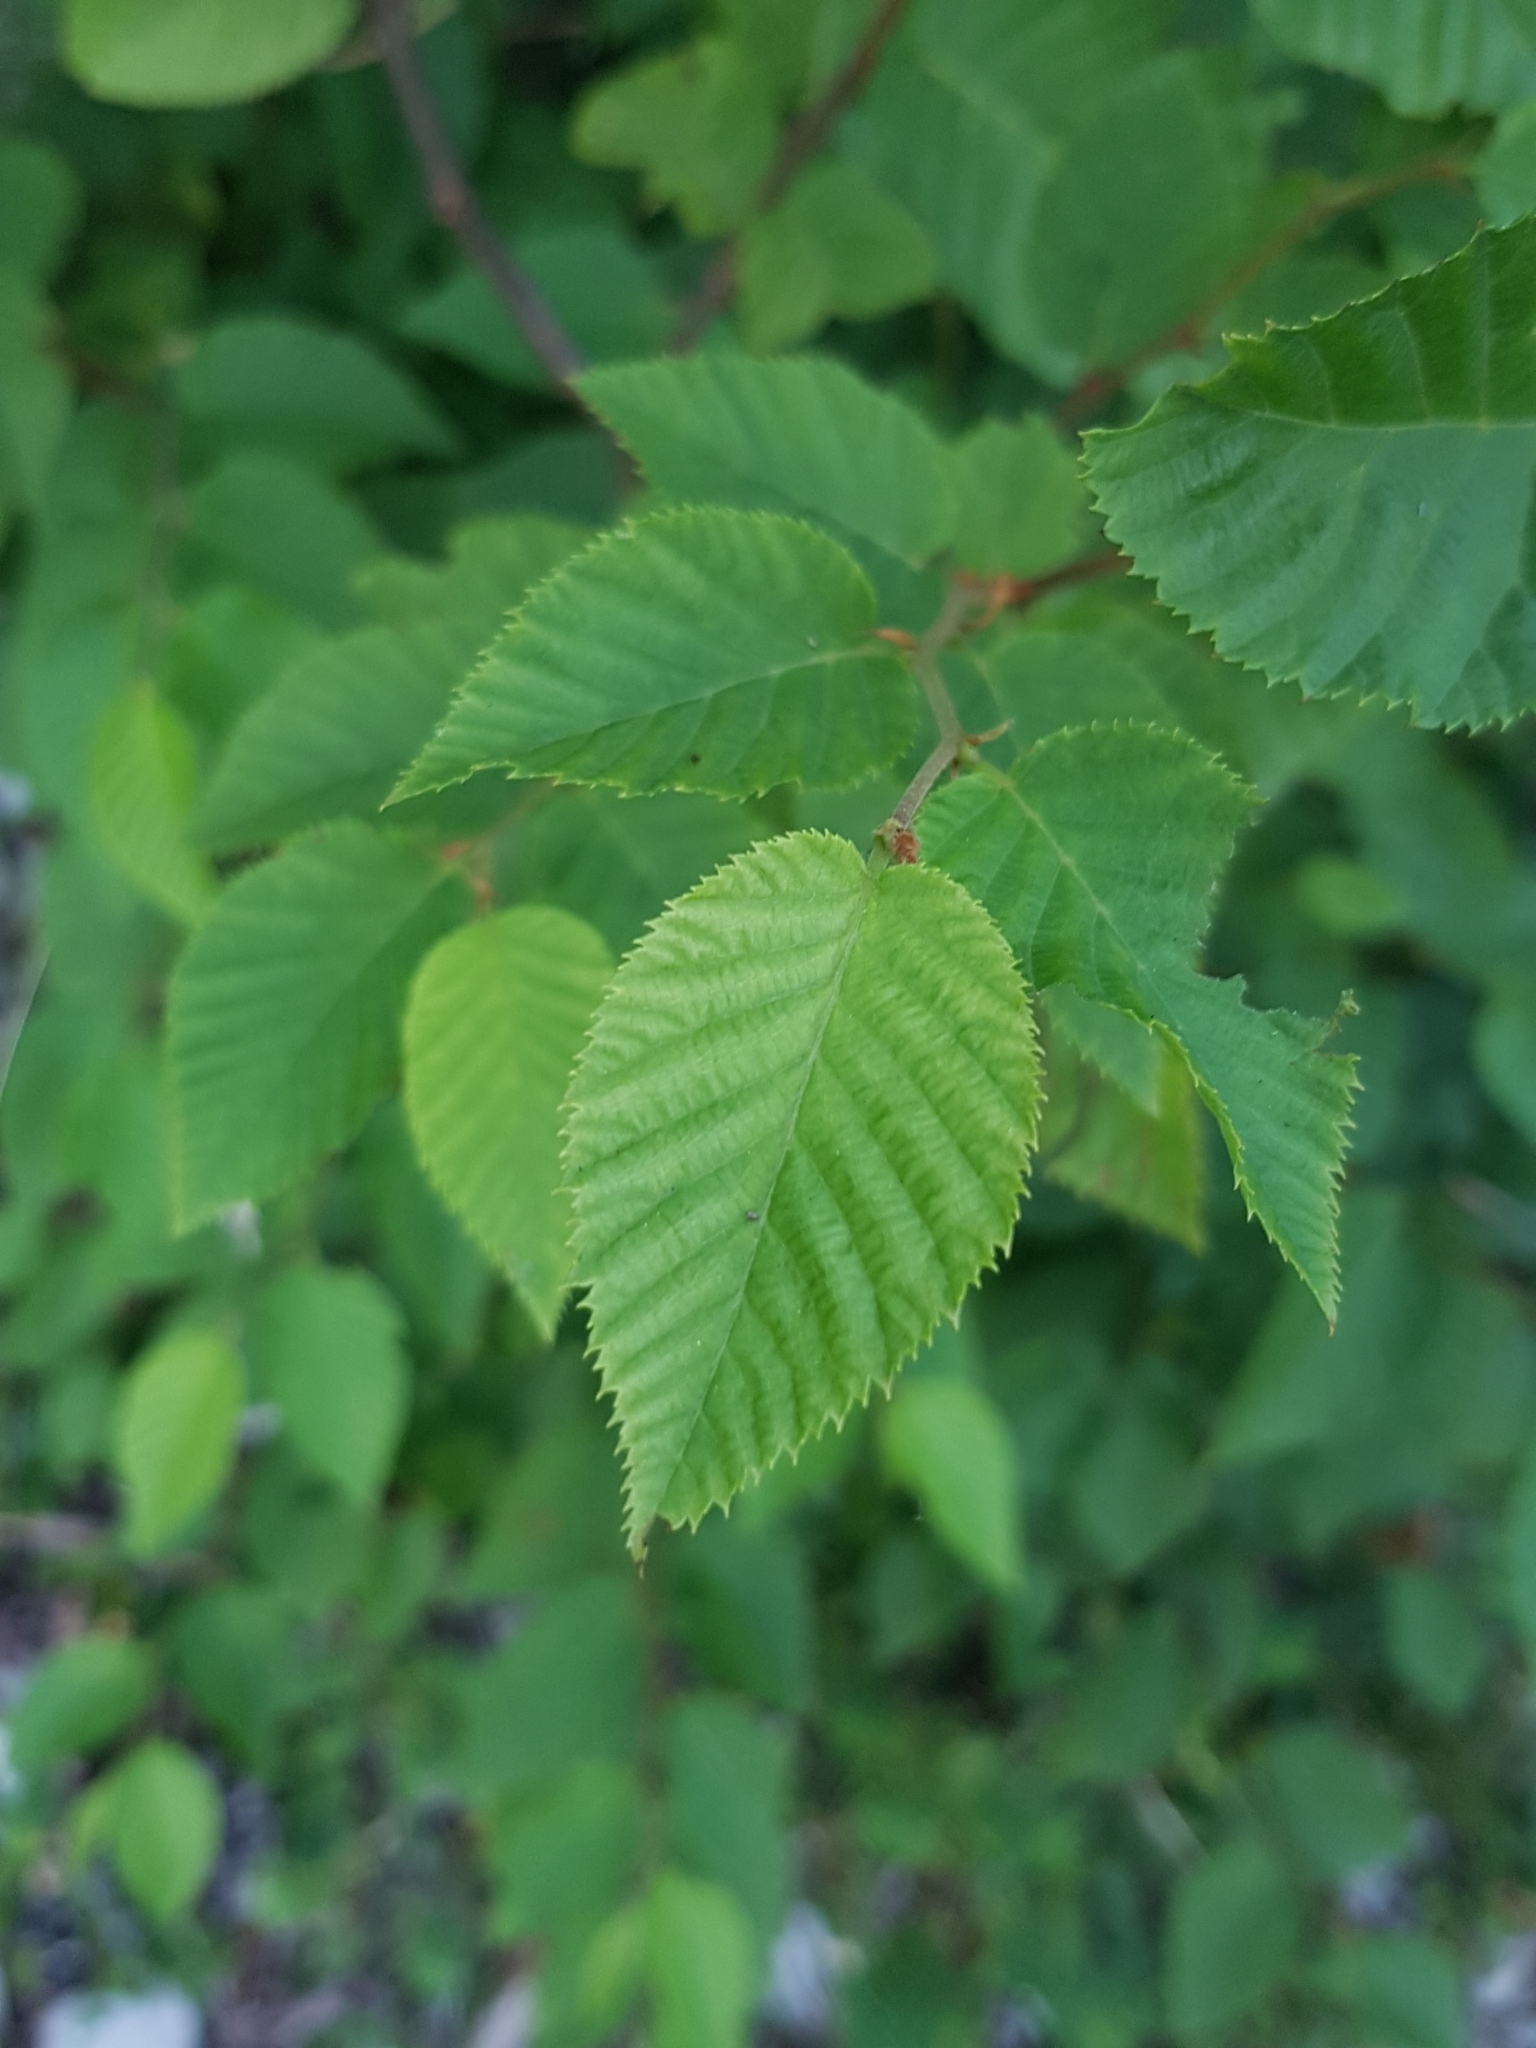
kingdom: Plantae
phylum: Tracheophyta
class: Magnoliopsida
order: Fagales
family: Betulaceae
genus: Ostrya
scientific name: Ostrya carpinifolia
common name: European hop-hornbeam
